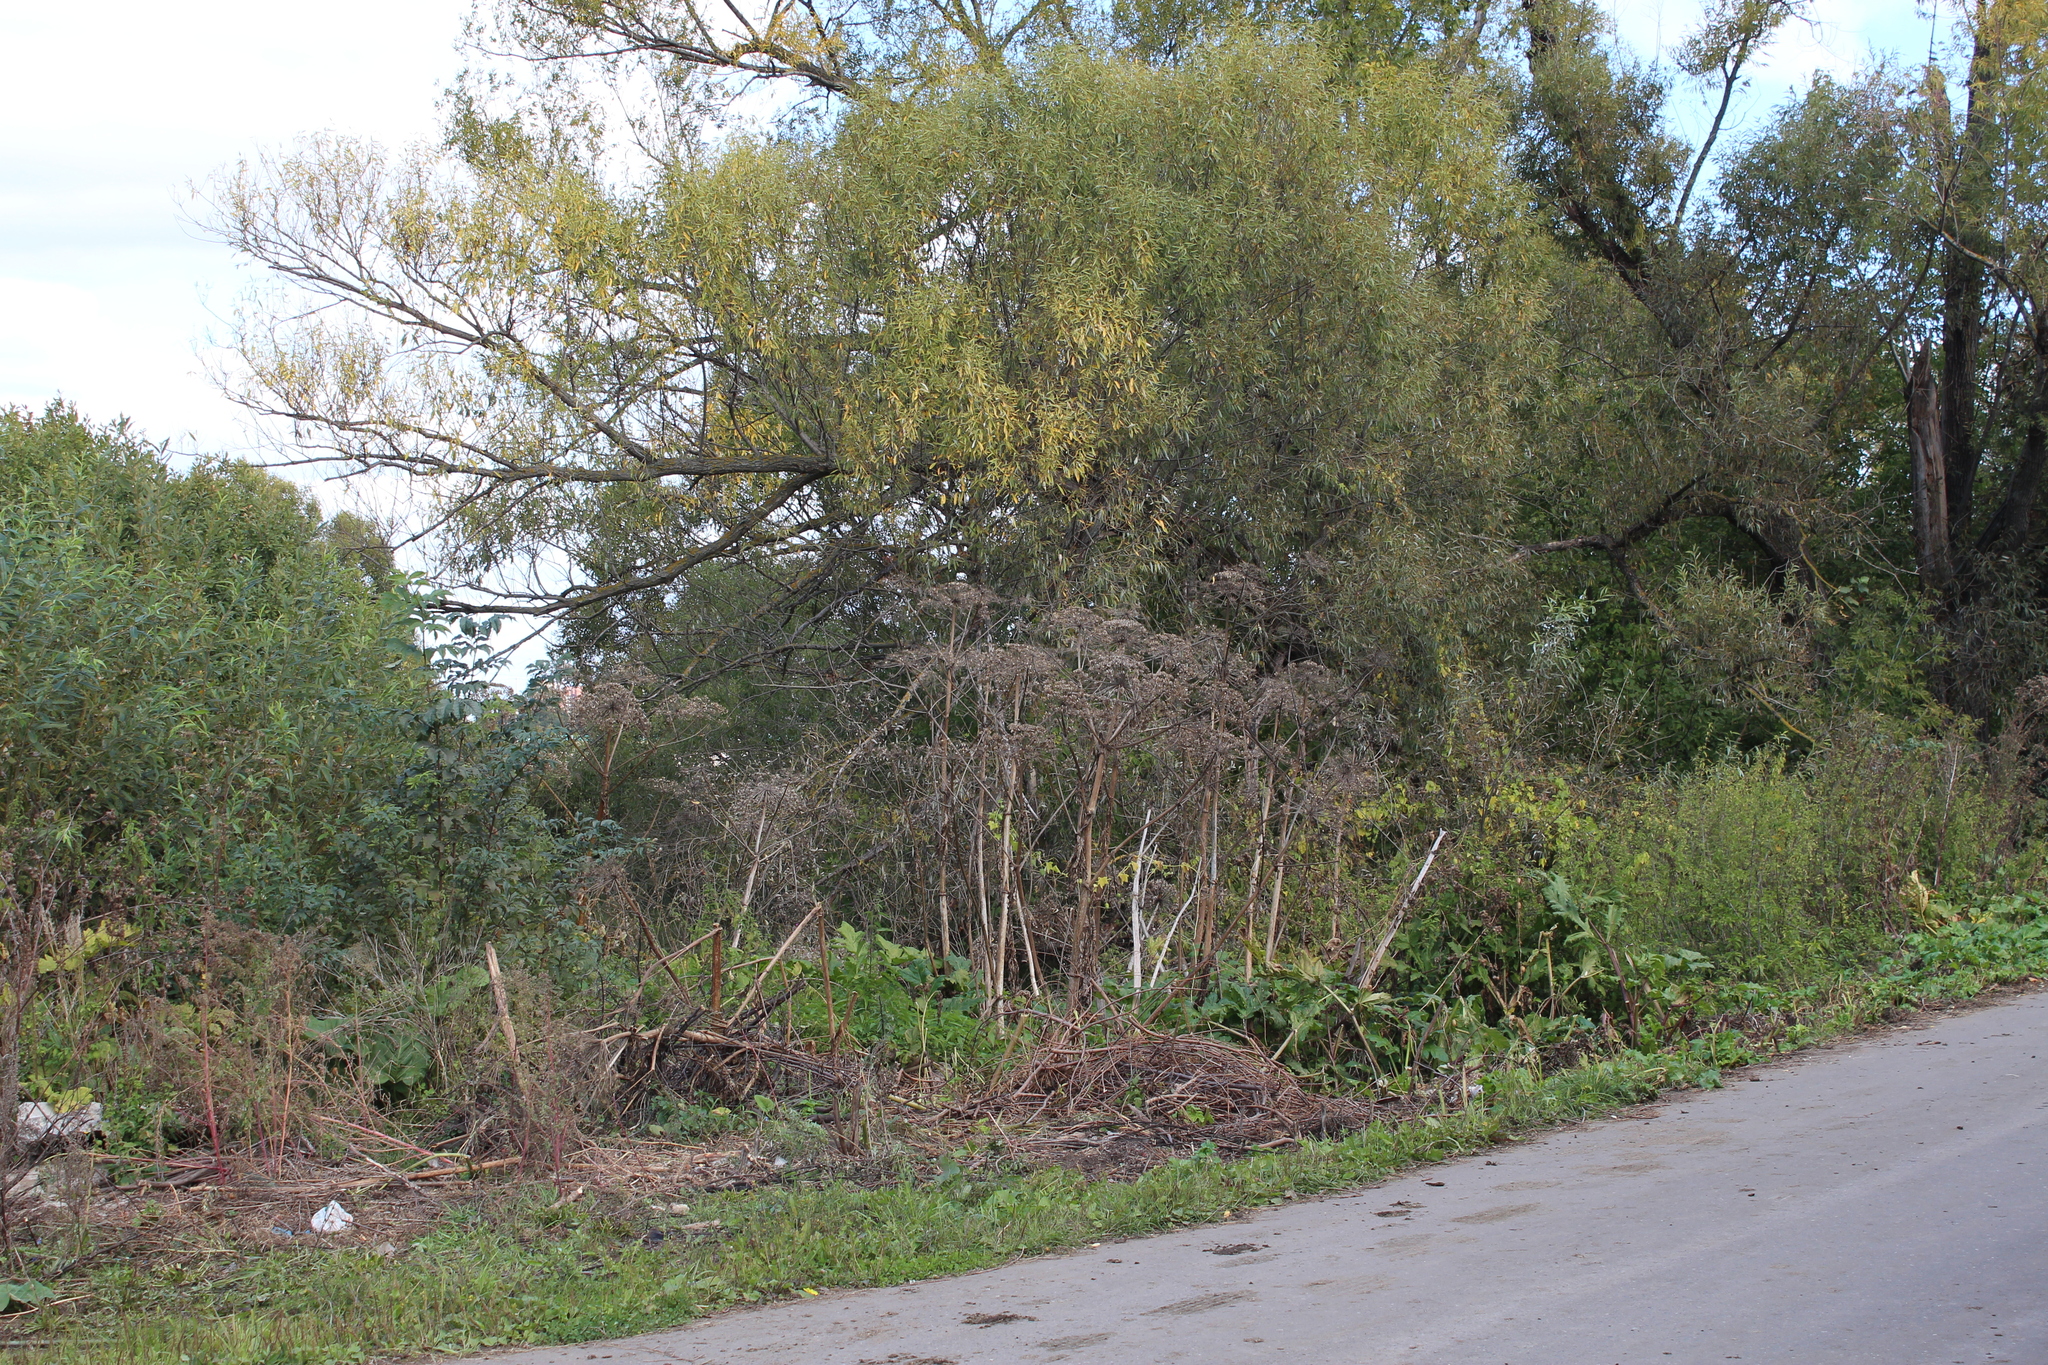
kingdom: Plantae
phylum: Tracheophyta
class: Magnoliopsida
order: Apiales
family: Apiaceae
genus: Heracleum
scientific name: Heracleum sosnowskyi
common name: Sosnowsky's hogweed
